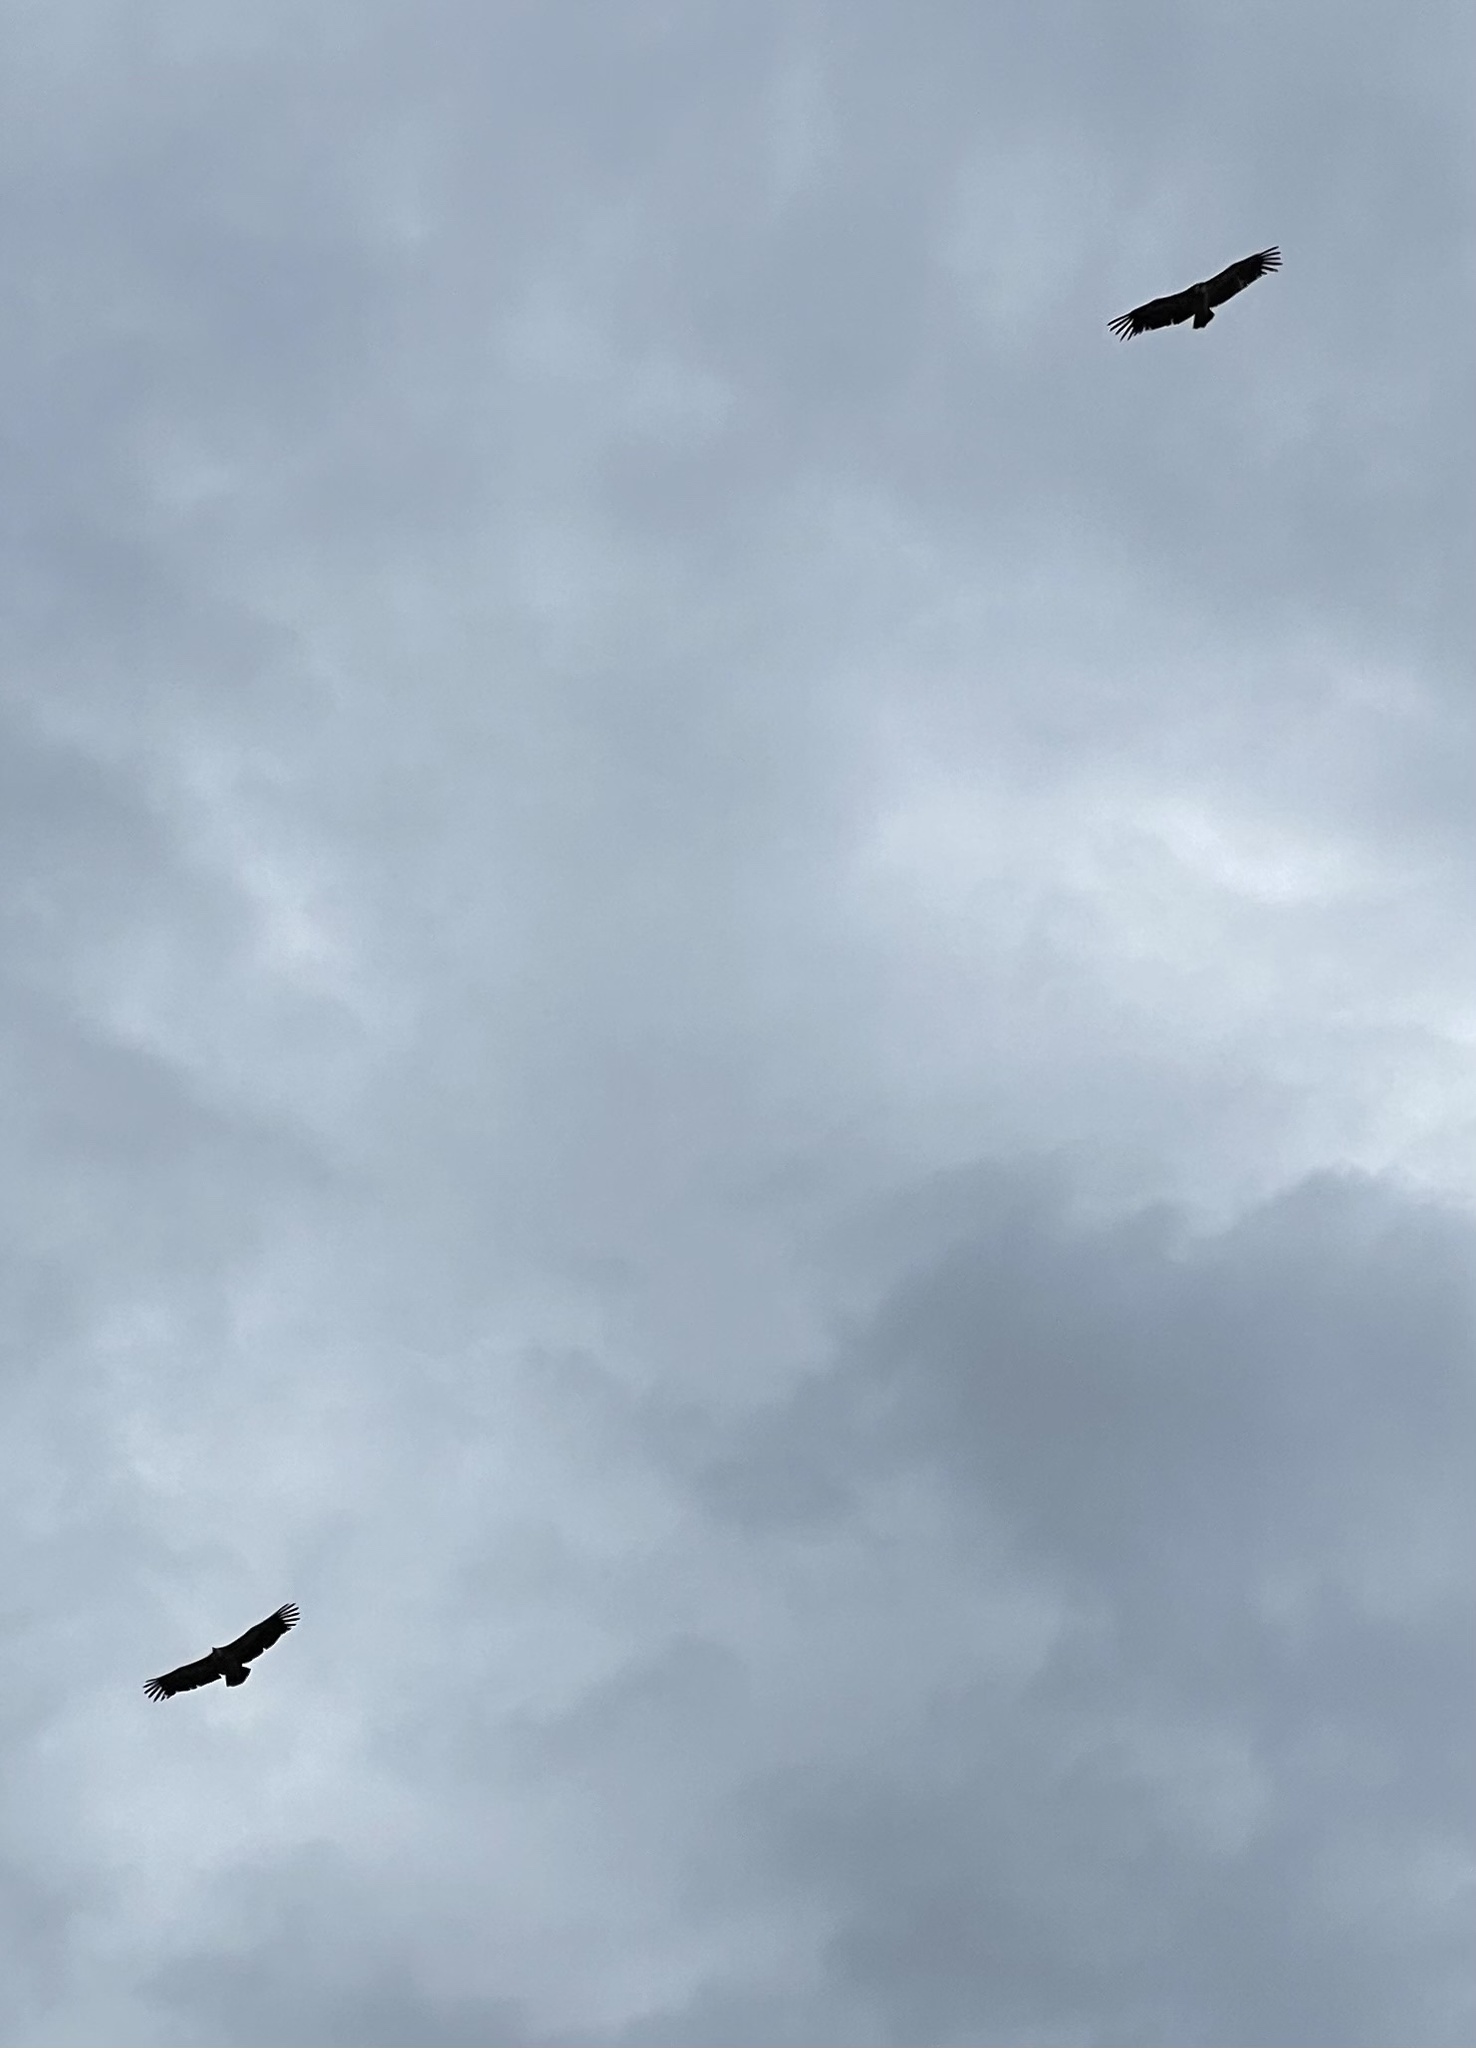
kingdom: Animalia
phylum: Chordata
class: Aves
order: Accipitriformes
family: Accipitridae
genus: Gyps
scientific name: Gyps fulvus
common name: Griffon vulture
